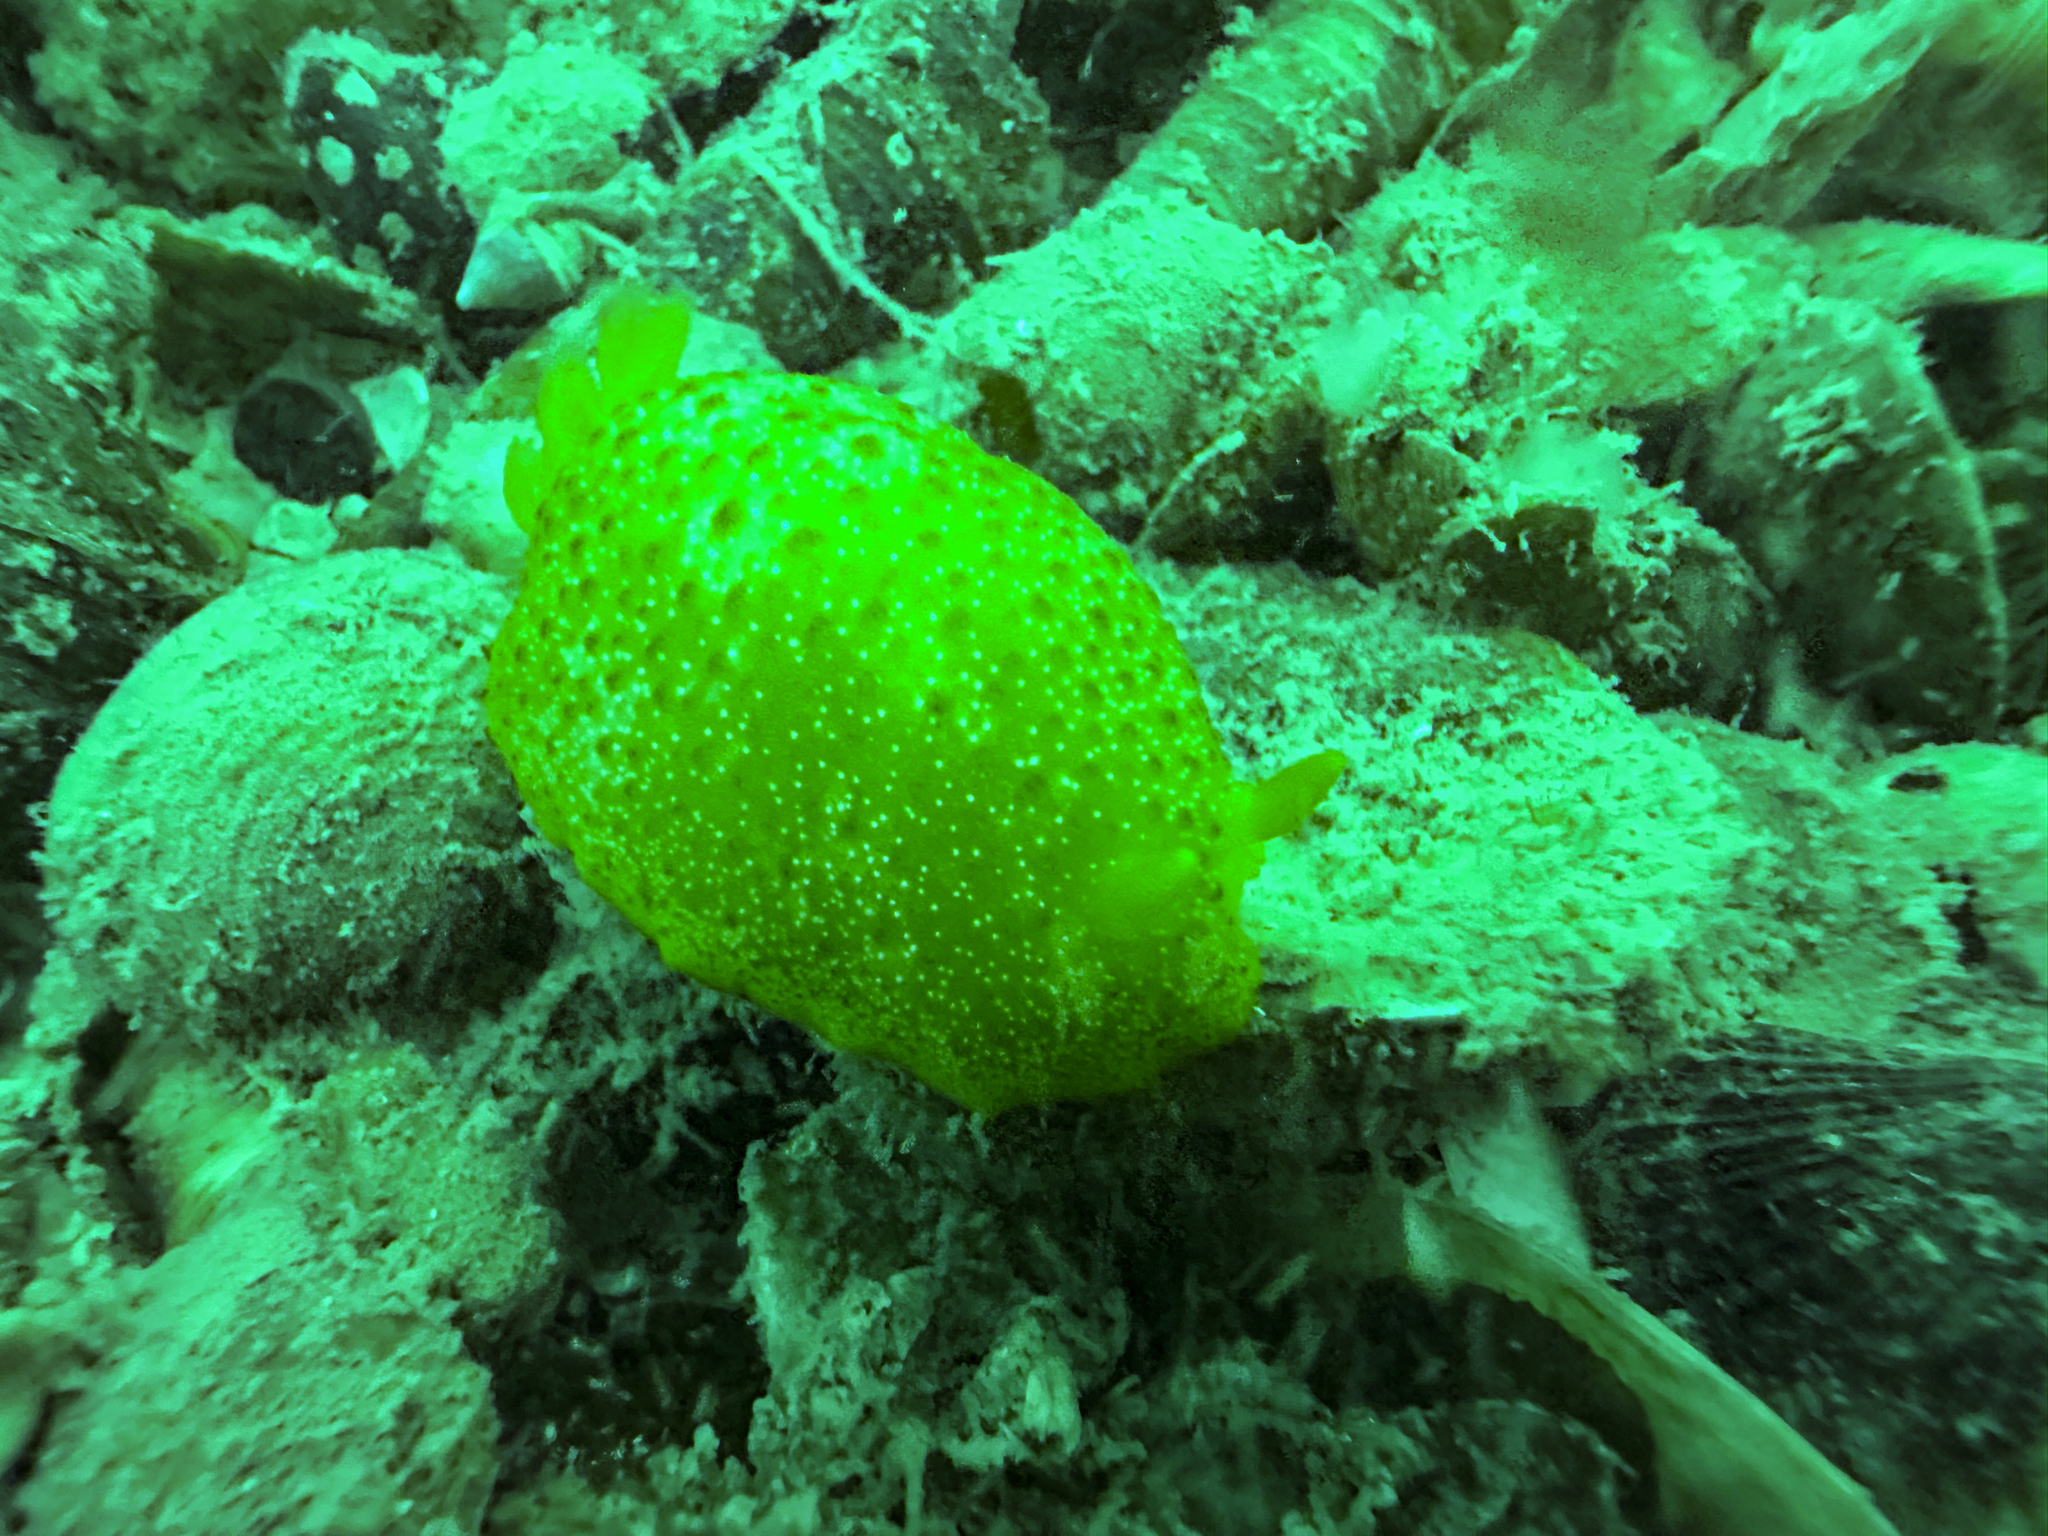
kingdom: Animalia
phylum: Mollusca
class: Gastropoda
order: Nudibranchia
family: Dendrodorididae
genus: Dendrodoris
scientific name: Dendrodoris citrina
